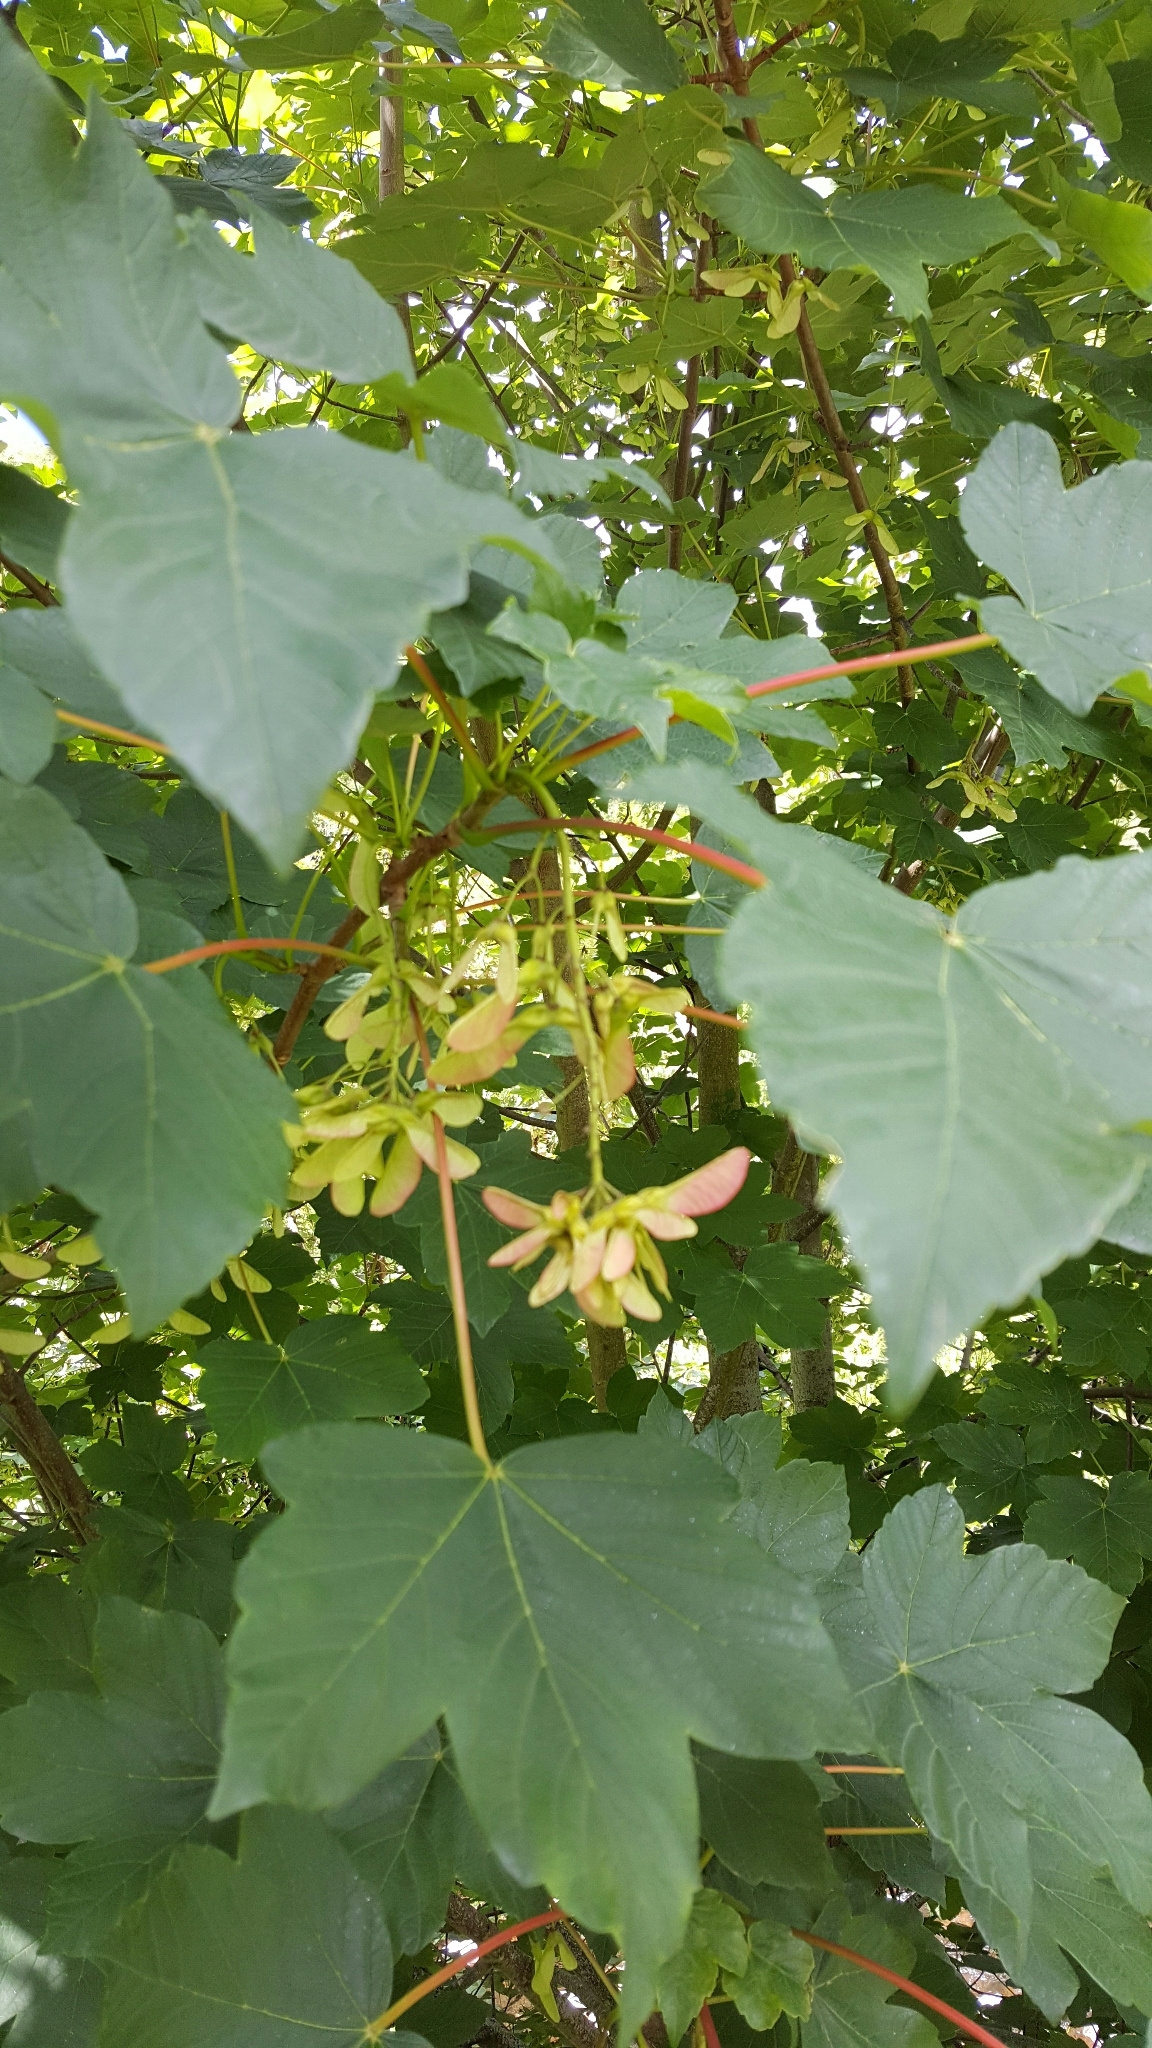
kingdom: Plantae
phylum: Tracheophyta
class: Magnoliopsida
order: Sapindales
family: Sapindaceae
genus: Acer
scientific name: Acer pseudoplatanus
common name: Sycamore
